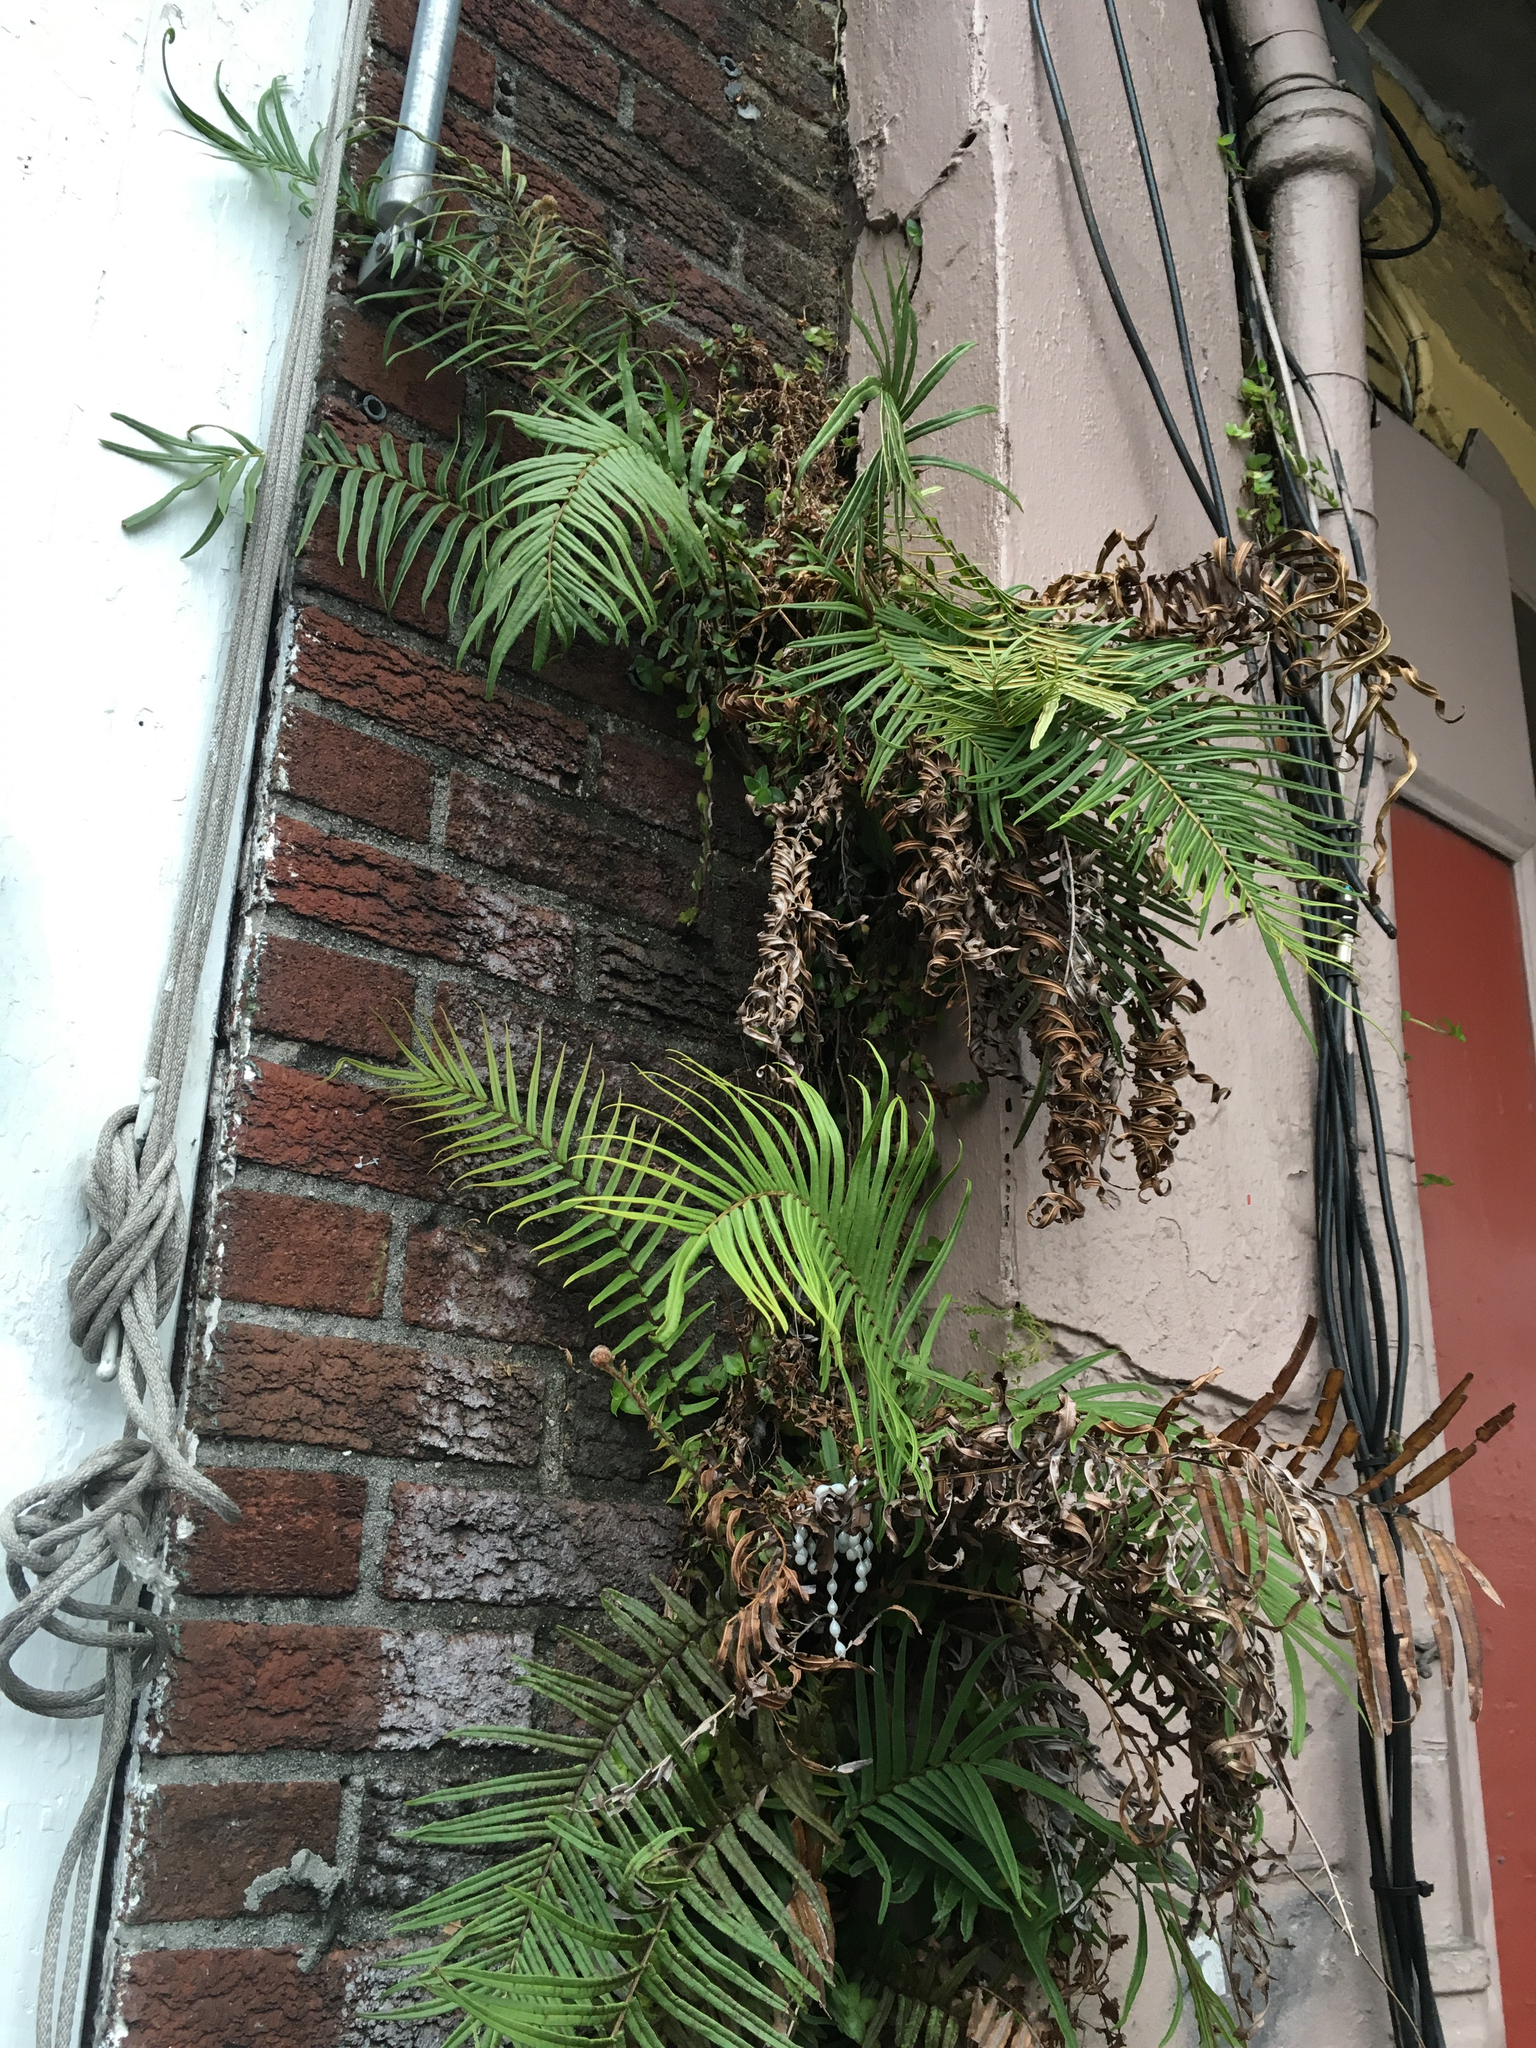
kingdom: Plantae
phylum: Tracheophyta
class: Polypodiopsida
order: Polypodiales
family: Pteridaceae
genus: Pteris
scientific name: Pteris vittata
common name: Ladder brake
